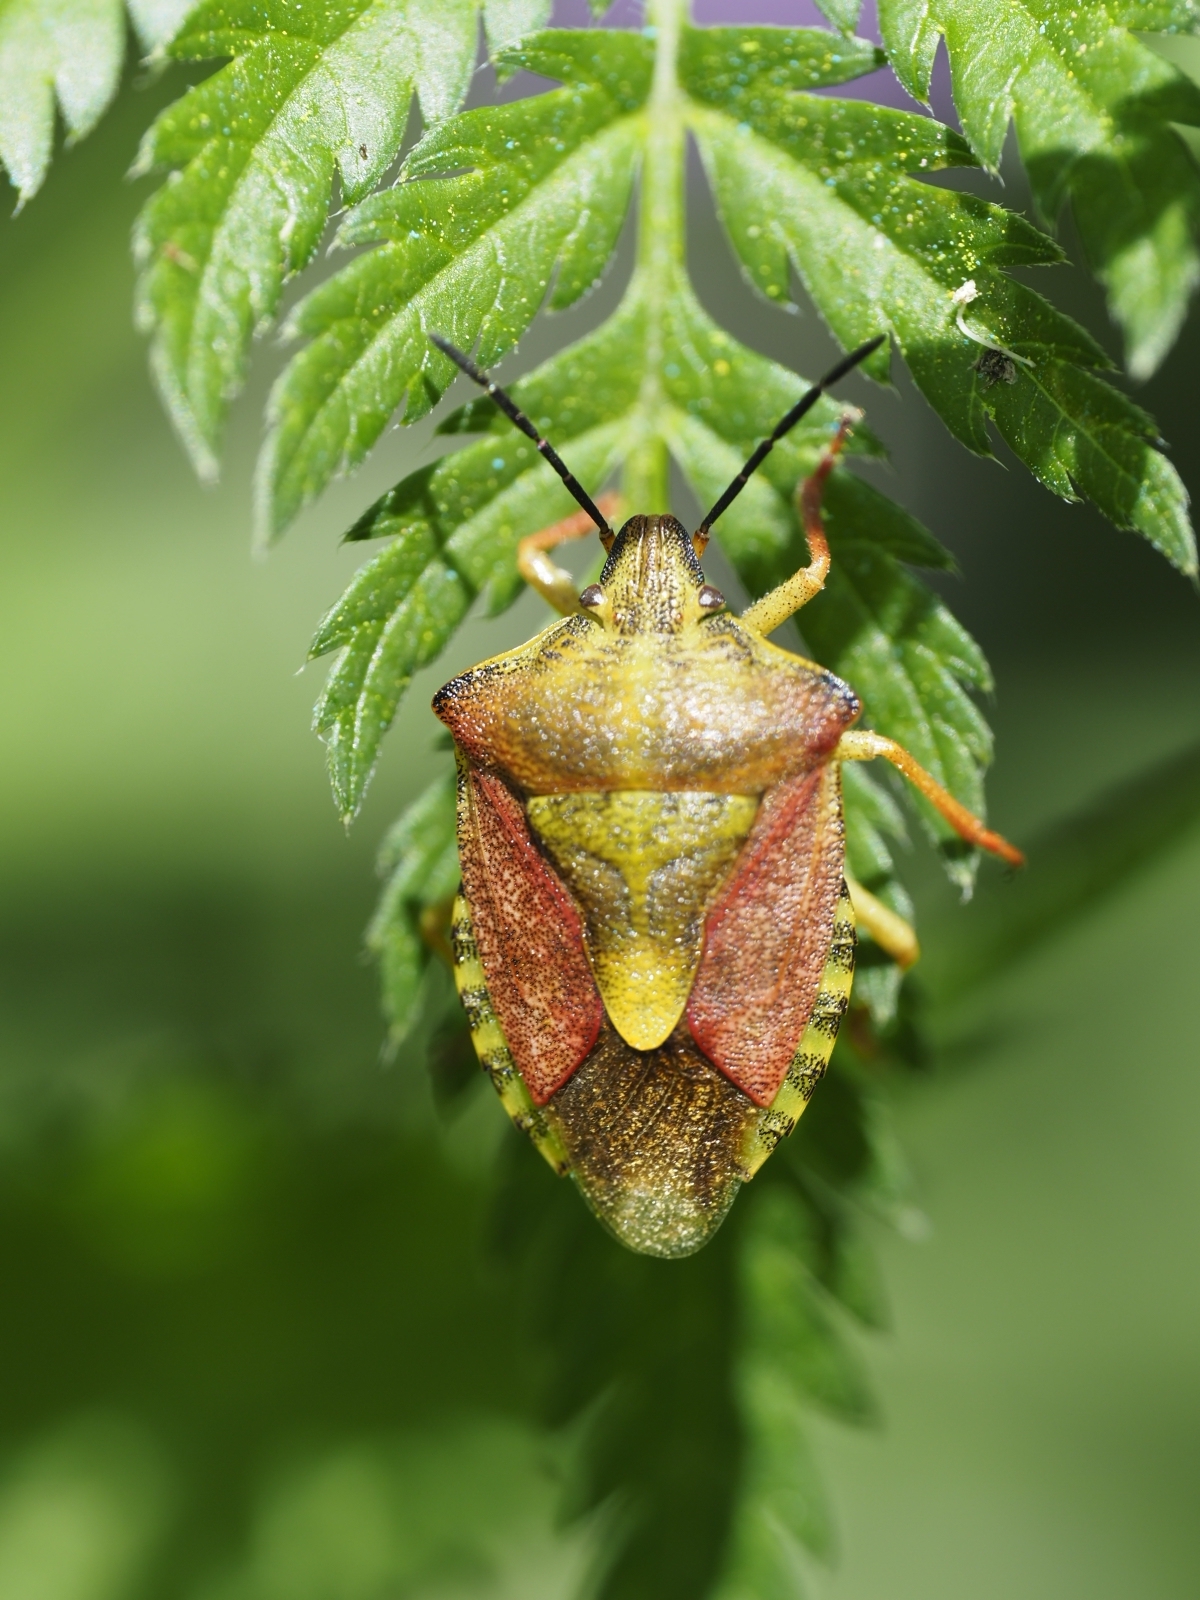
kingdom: Animalia
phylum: Arthropoda
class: Insecta
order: Hemiptera
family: Pentatomidae
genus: Carpocoris
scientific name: Carpocoris purpureipennis
